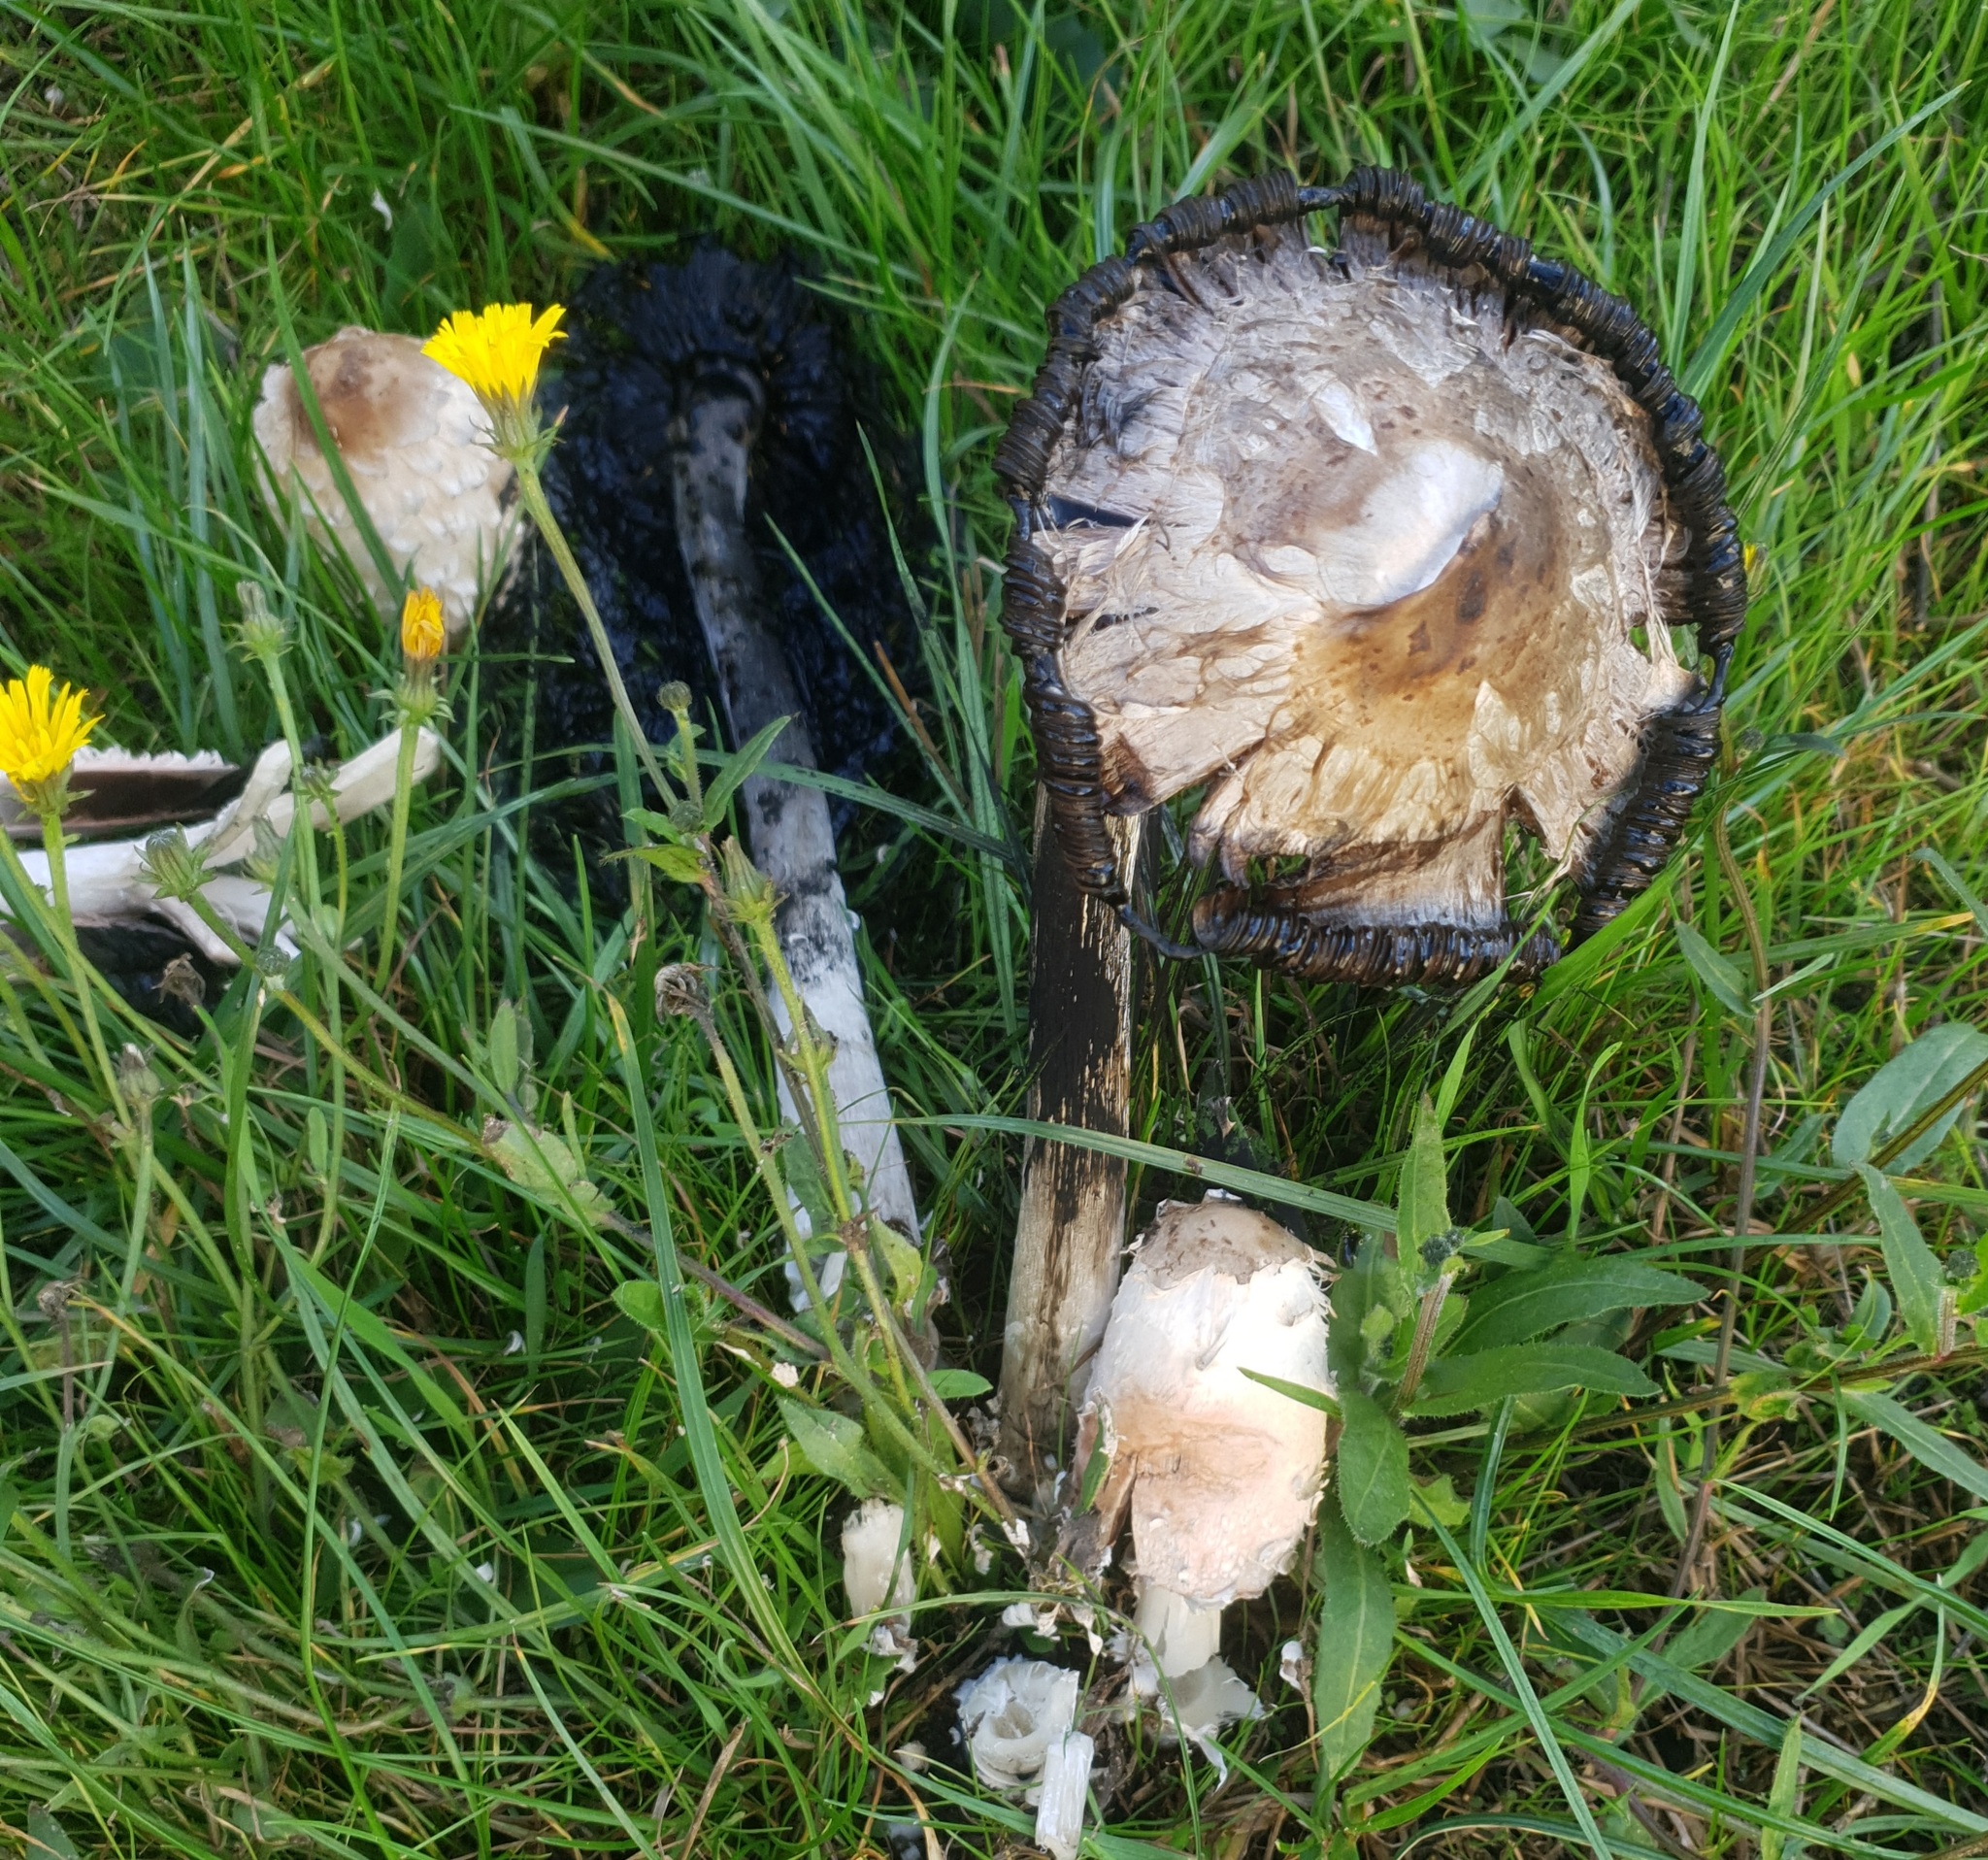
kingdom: Fungi
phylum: Basidiomycota
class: Agaricomycetes
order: Agaricales
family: Agaricaceae
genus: Coprinus
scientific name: Coprinus comatus
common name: Lawyer's wig
